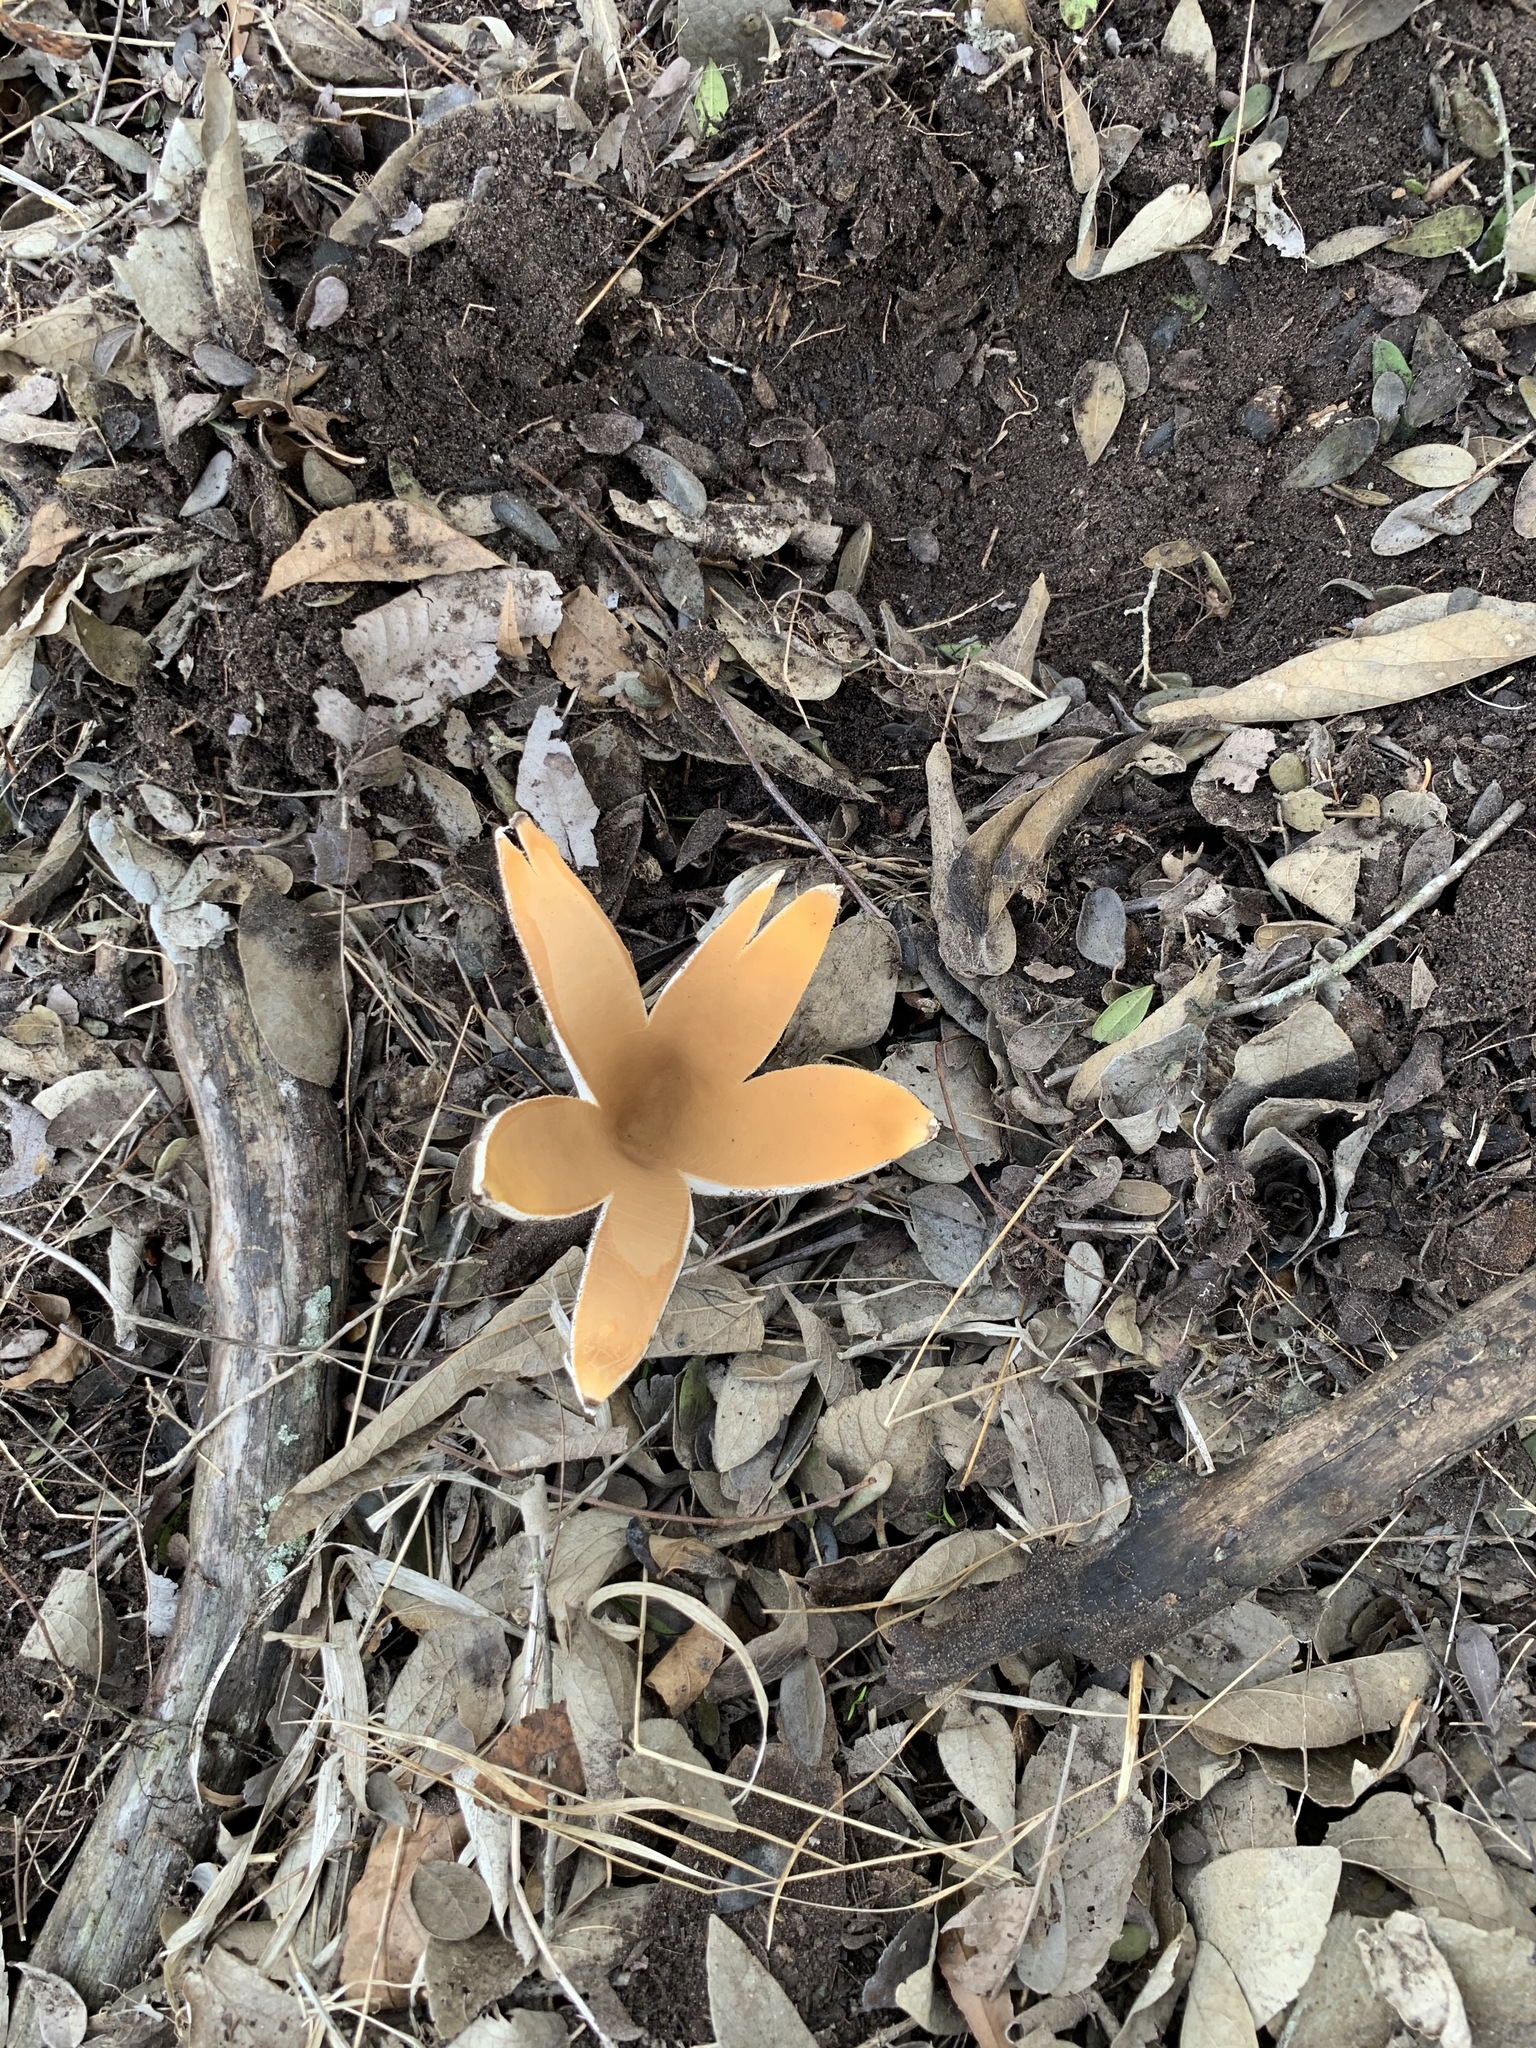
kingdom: Fungi
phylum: Ascomycota
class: Pezizomycetes
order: Pezizales
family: Chorioactidaceae
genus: Chorioactis
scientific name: Chorioactis geaster
